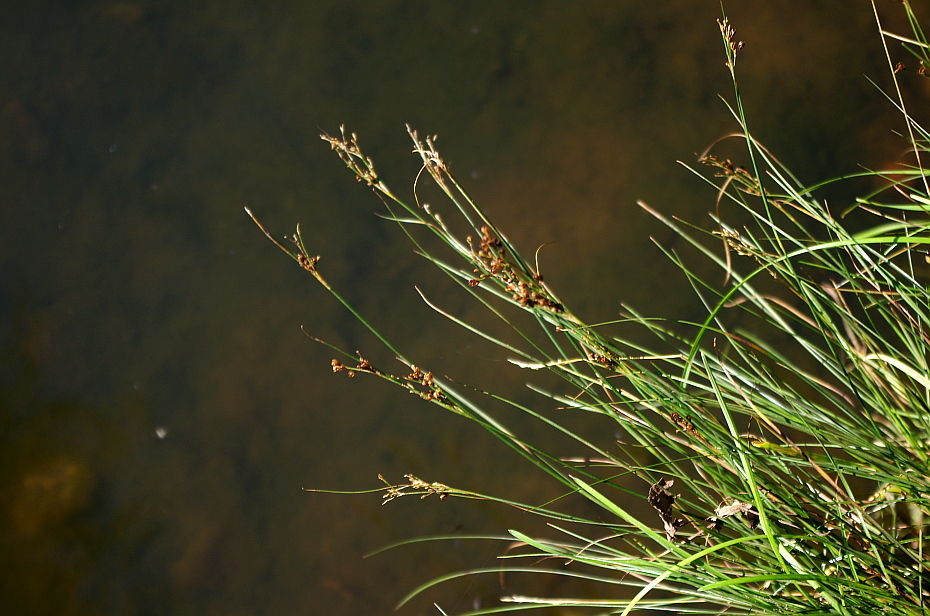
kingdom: Plantae
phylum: Tracheophyta
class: Liliopsida
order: Poales
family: Juncaceae
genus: Juncus
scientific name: Juncus compressus
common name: Round-fruited rush
